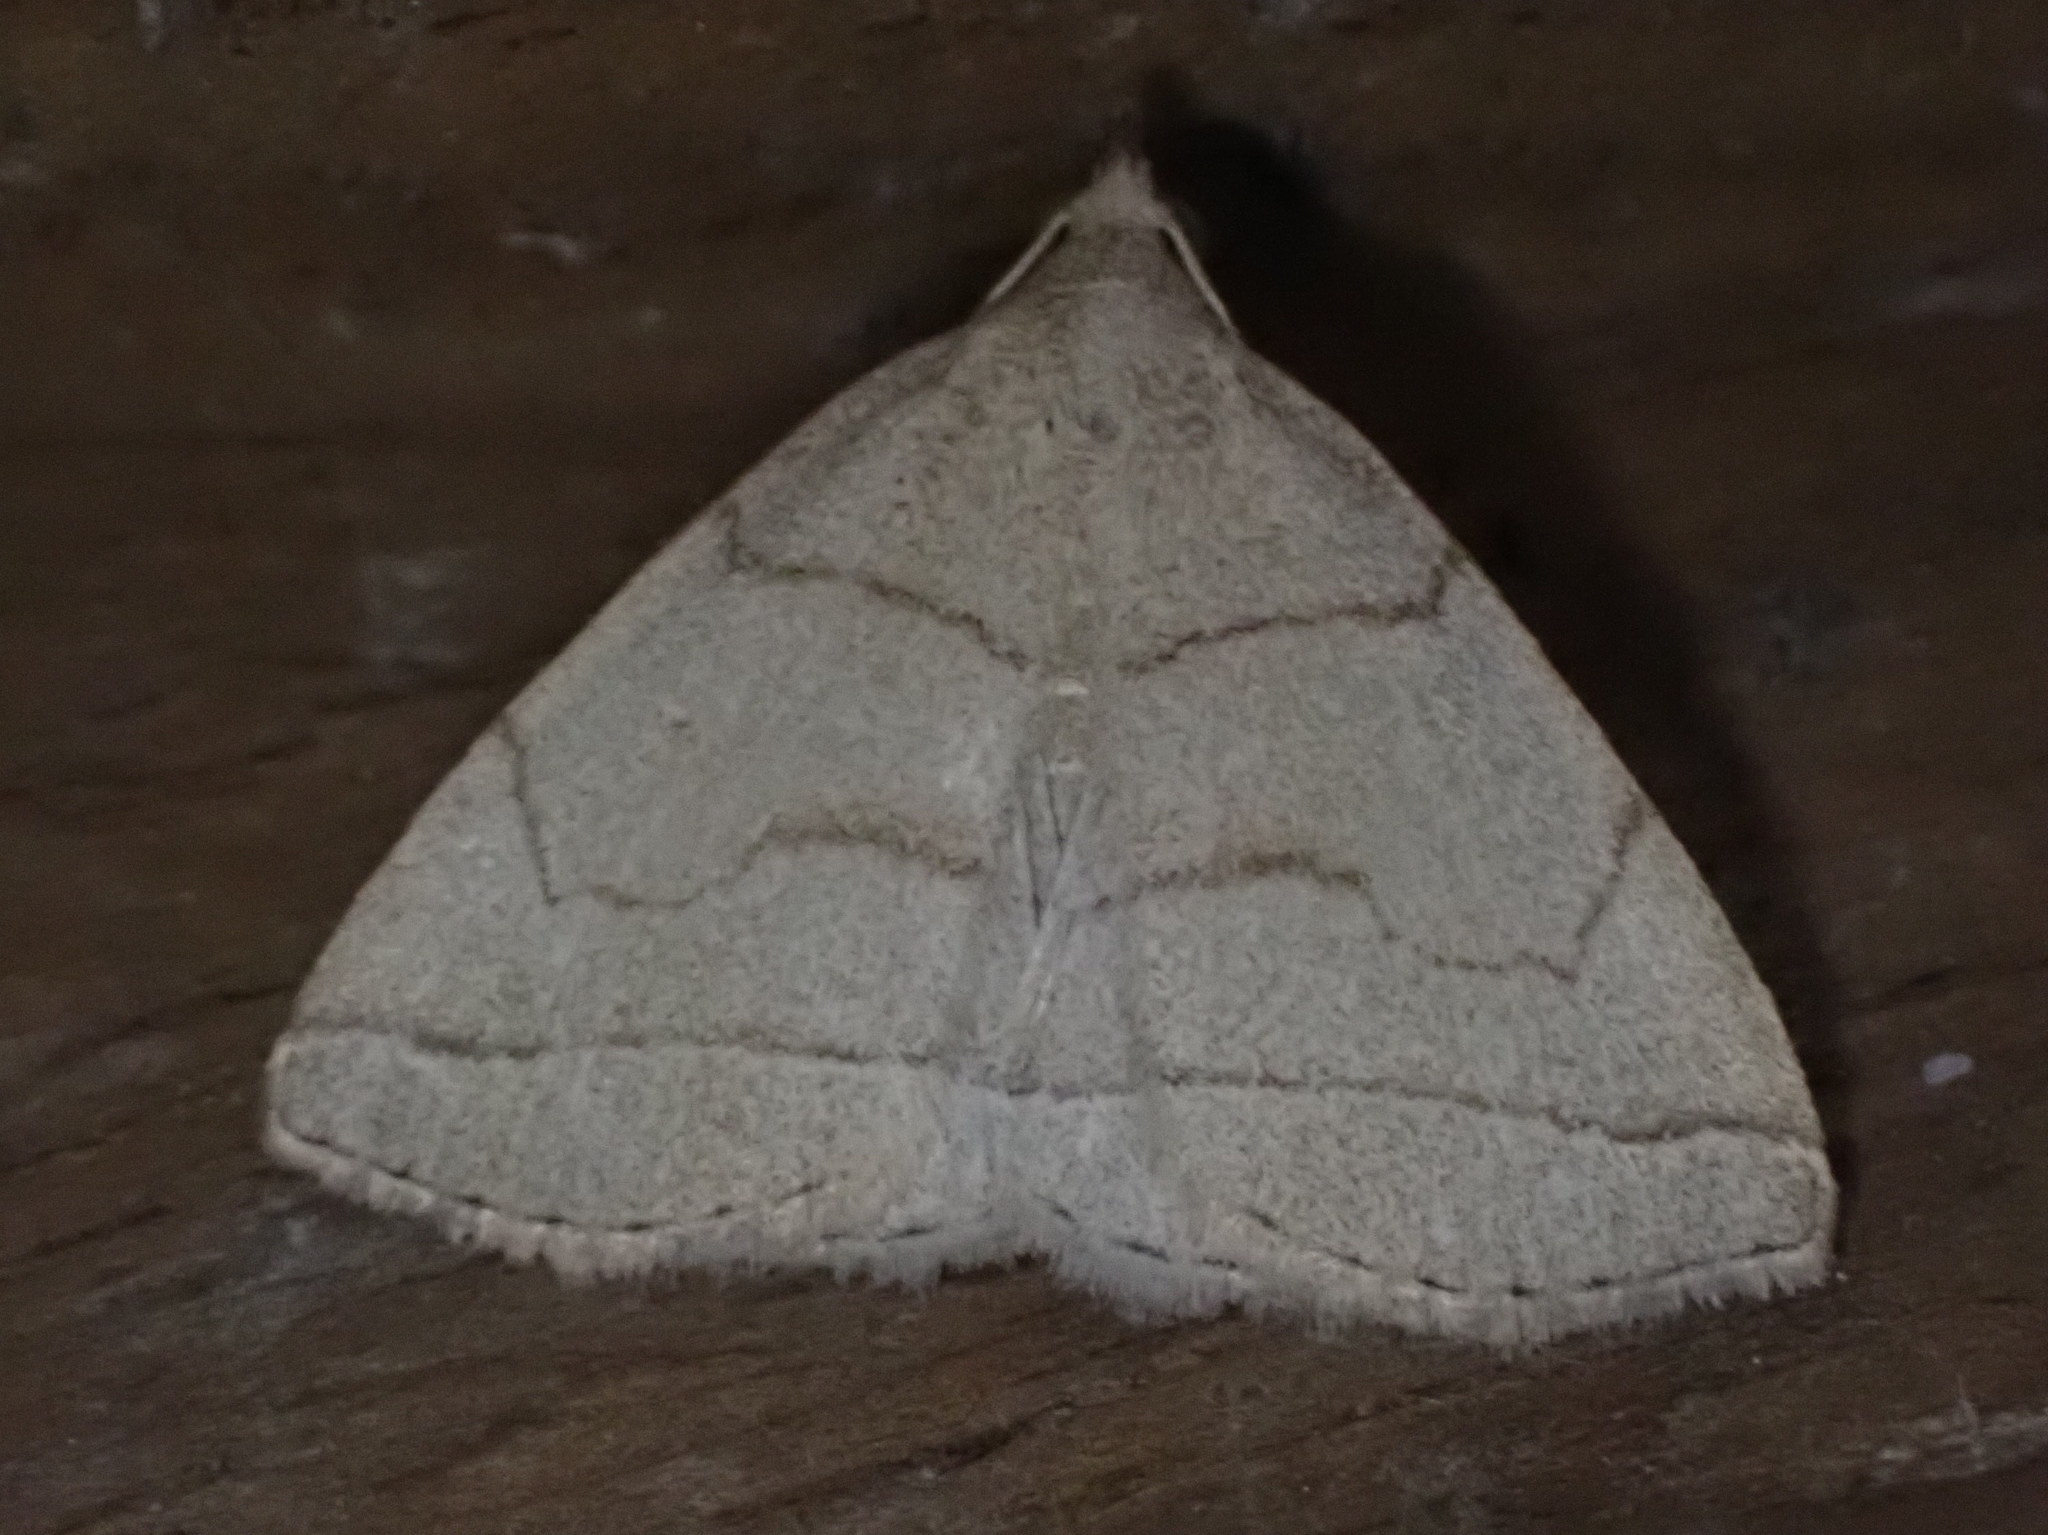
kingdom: Animalia
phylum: Arthropoda
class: Insecta
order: Lepidoptera
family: Erebidae
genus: Zanclognatha
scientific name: Zanclognatha cruralis
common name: Early fan-foot
